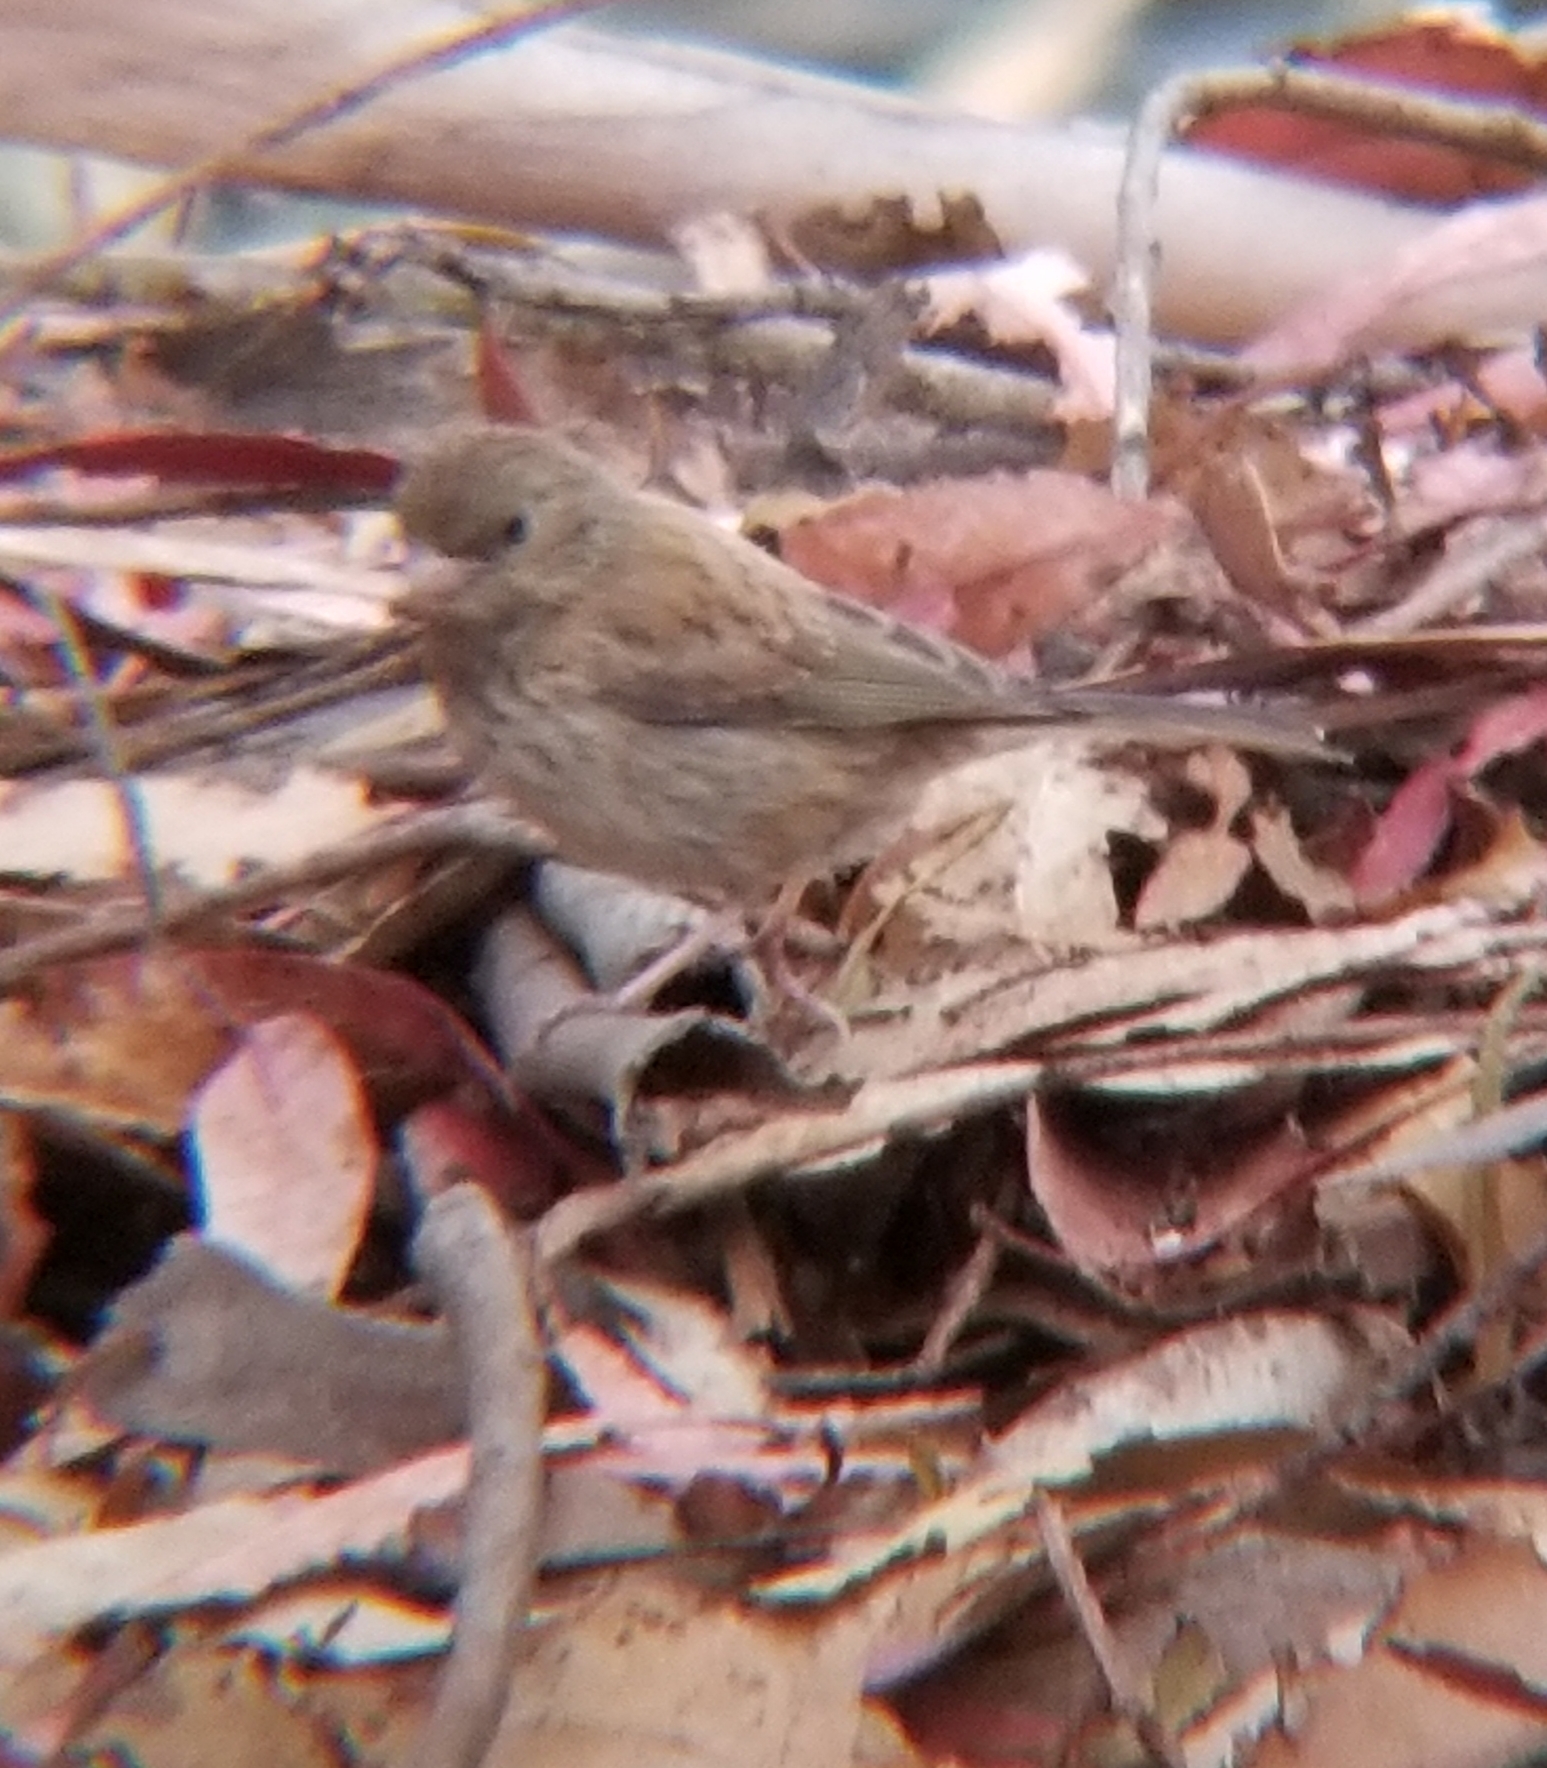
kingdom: Animalia
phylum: Chordata
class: Aves
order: Passeriformes
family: Passerellidae
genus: Junco
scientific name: Junco hyemalis
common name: Dark-eyed junco
